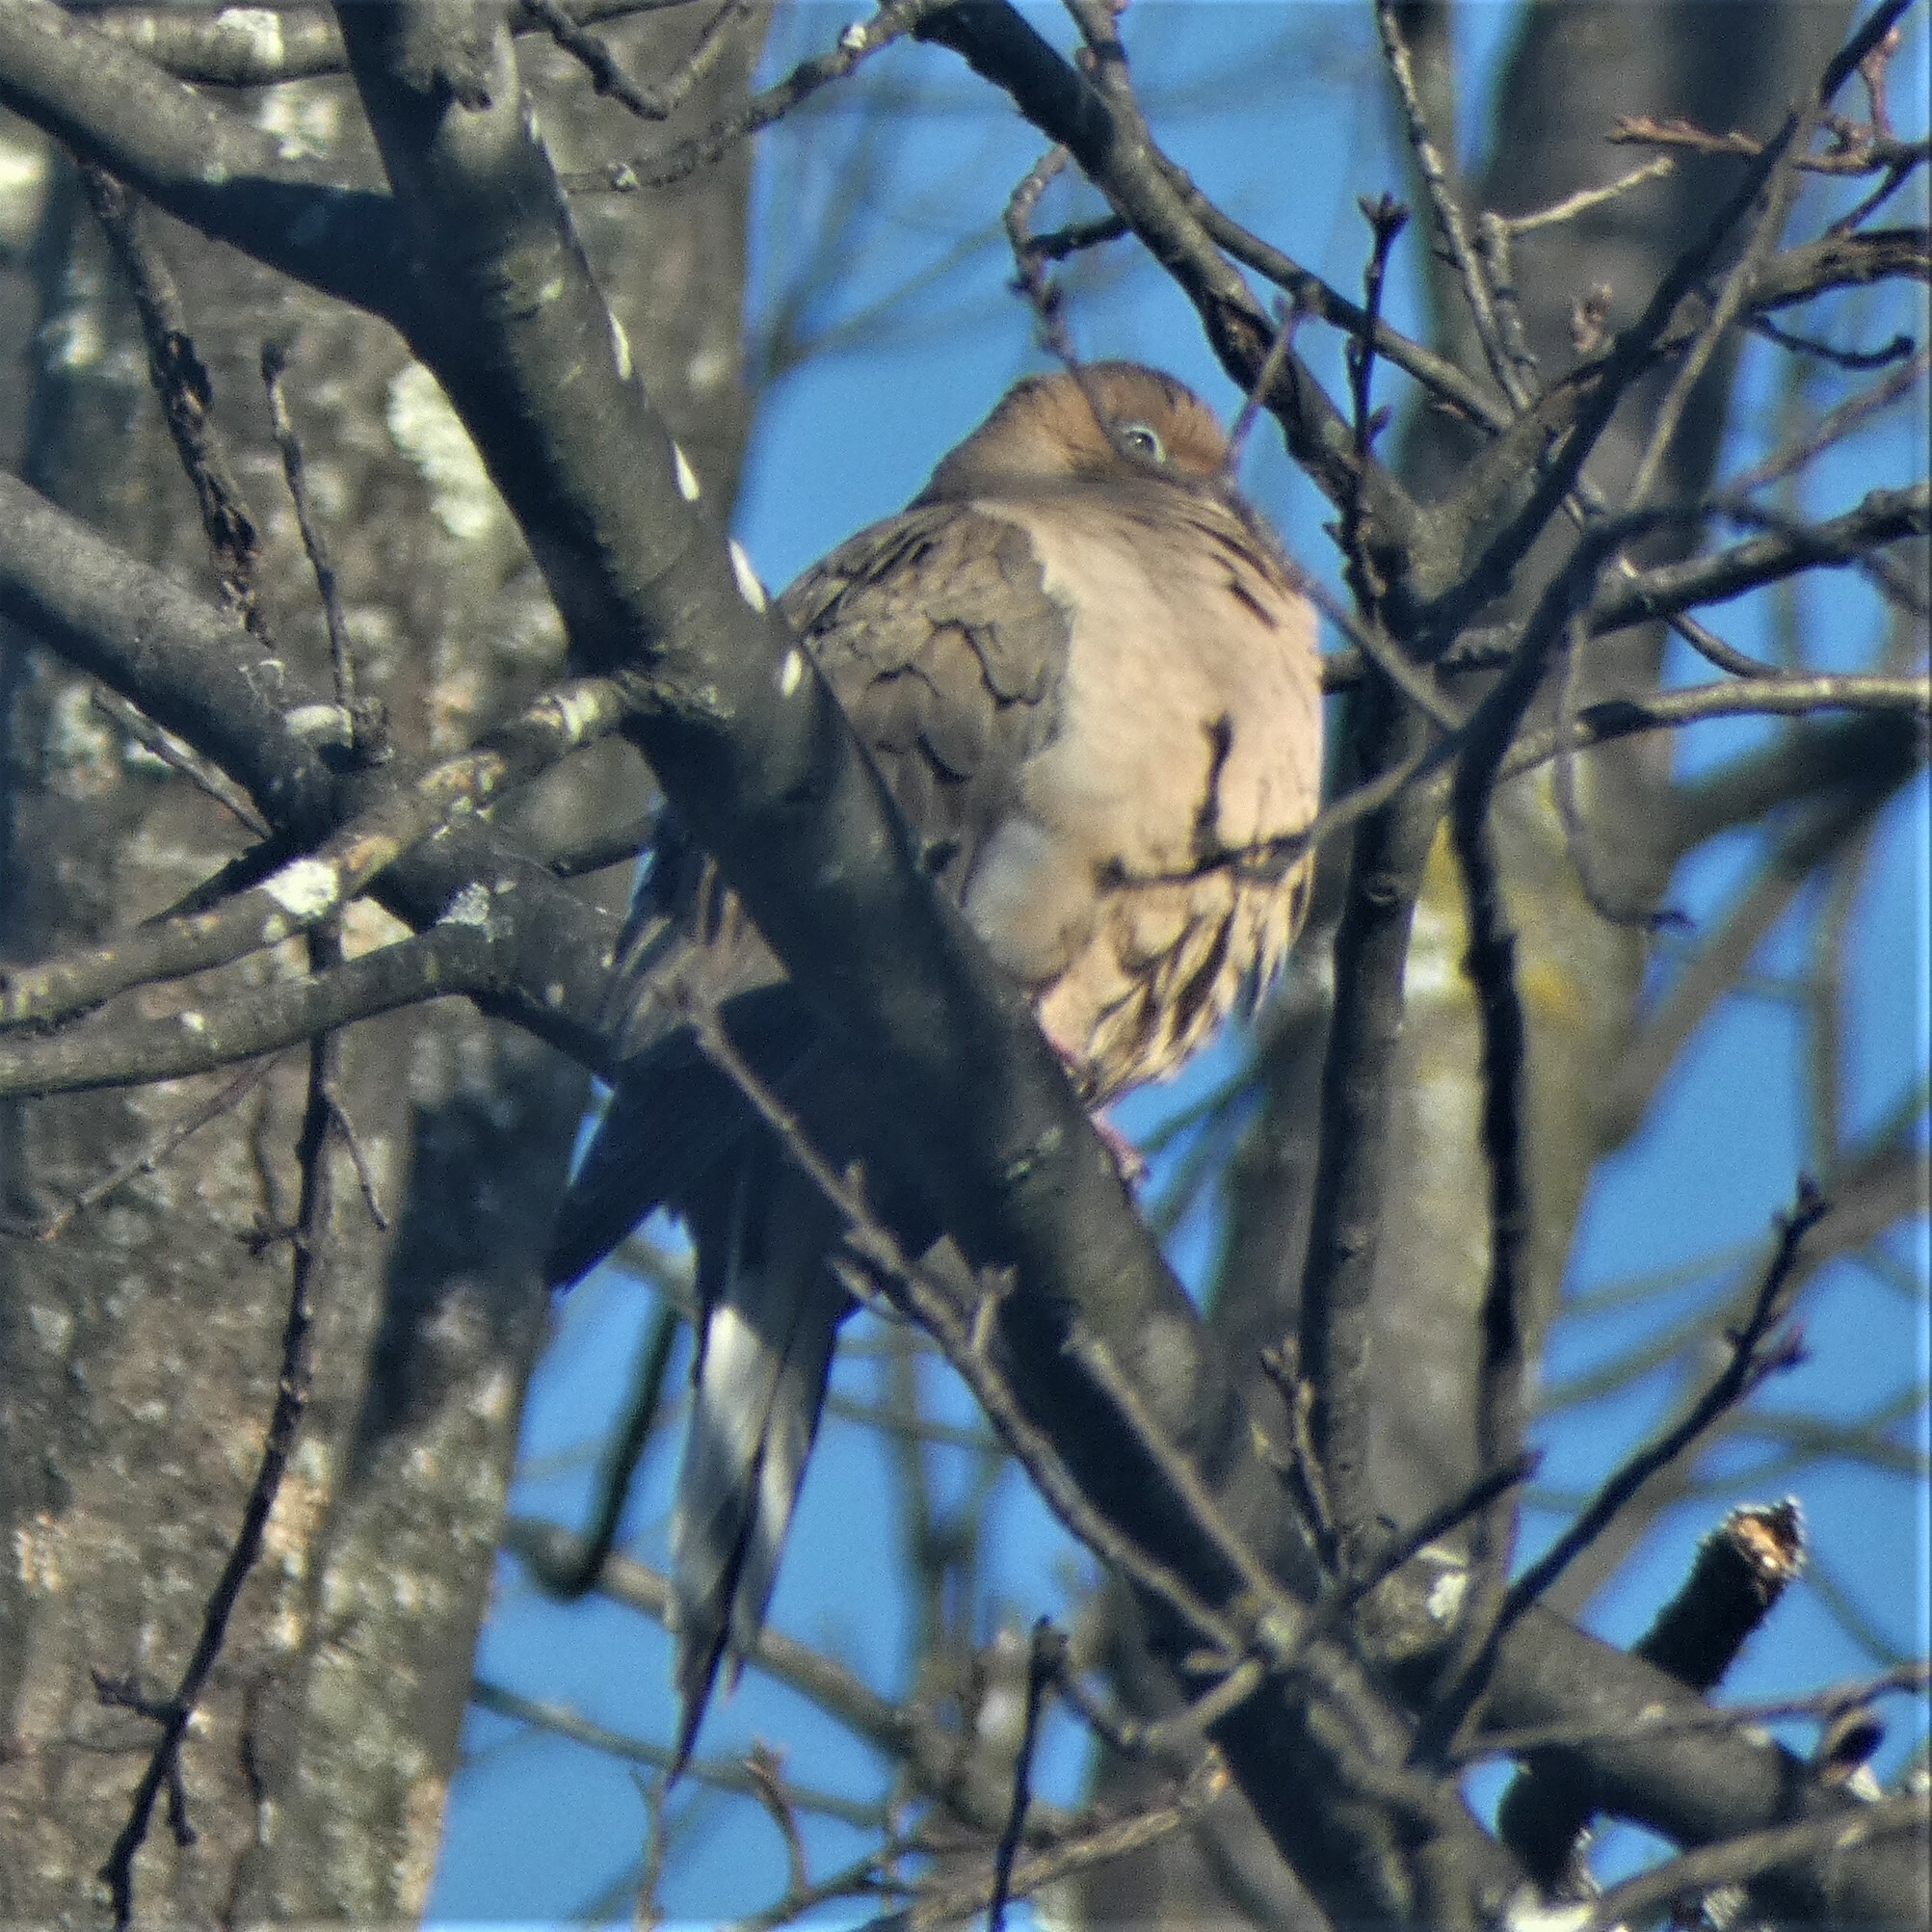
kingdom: Animalia
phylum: Chordata
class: Aves
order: Columbiformes
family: Columbidae
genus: Zenaida
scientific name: Zenaida macroura
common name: Mourning dove
